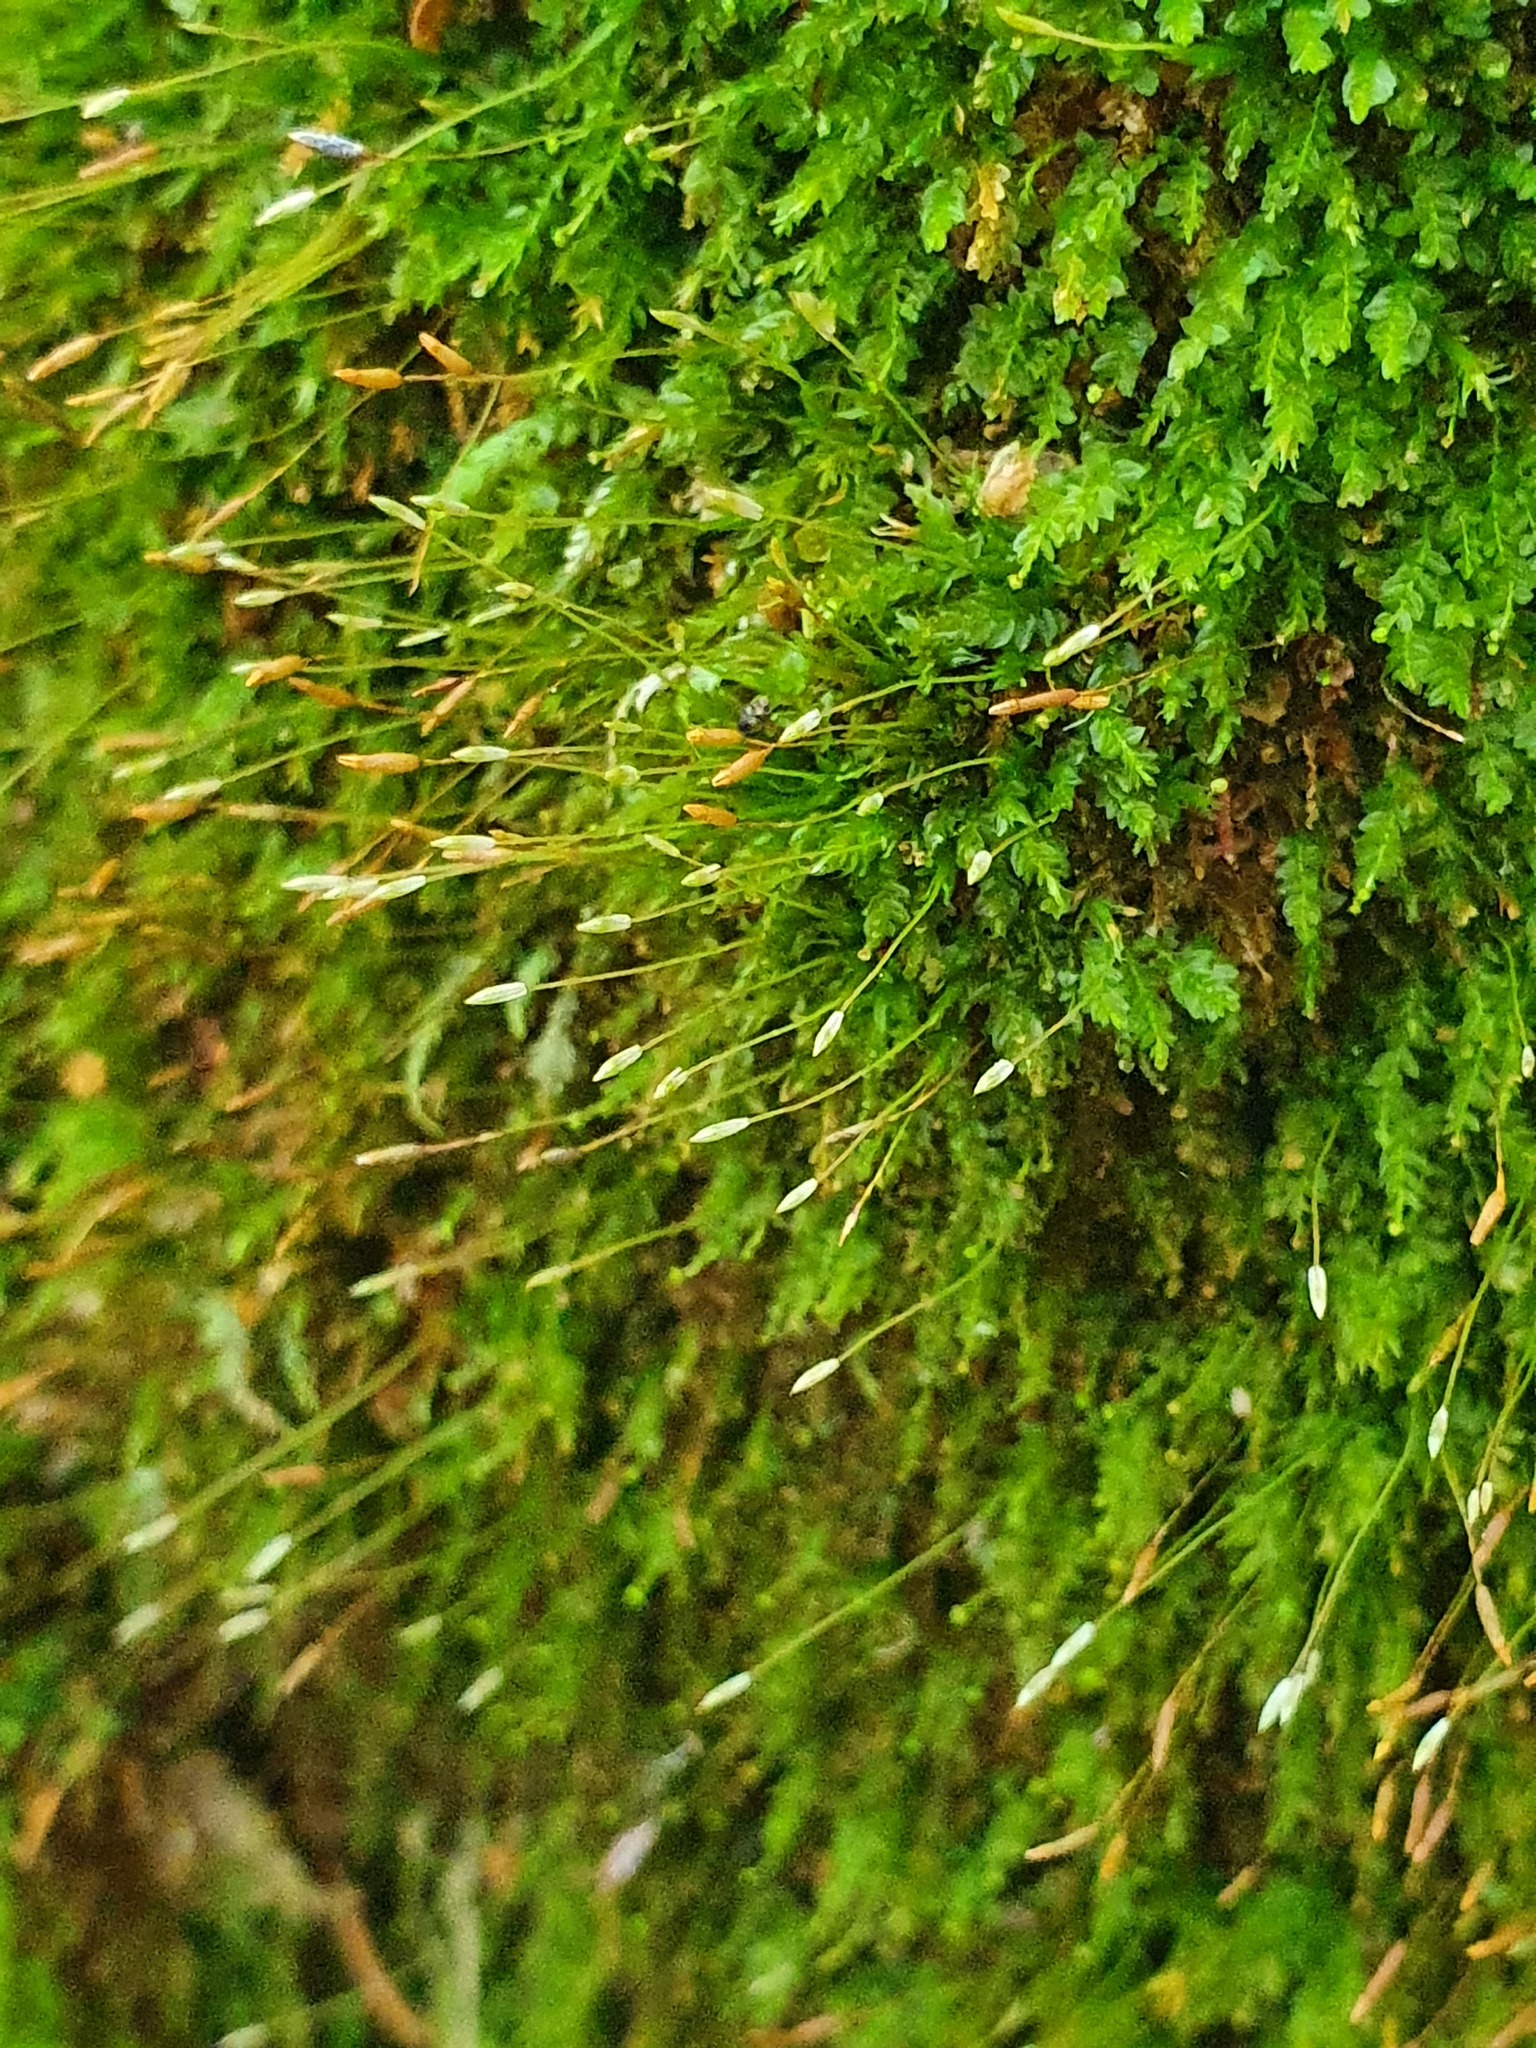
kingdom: Plantae
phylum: Bryophyta
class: Polytrichopsida
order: Tetraphidales
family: Tetraphidaceae
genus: Tetraphis
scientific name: Tetraphis pellucida
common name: Common four-toothed moss
